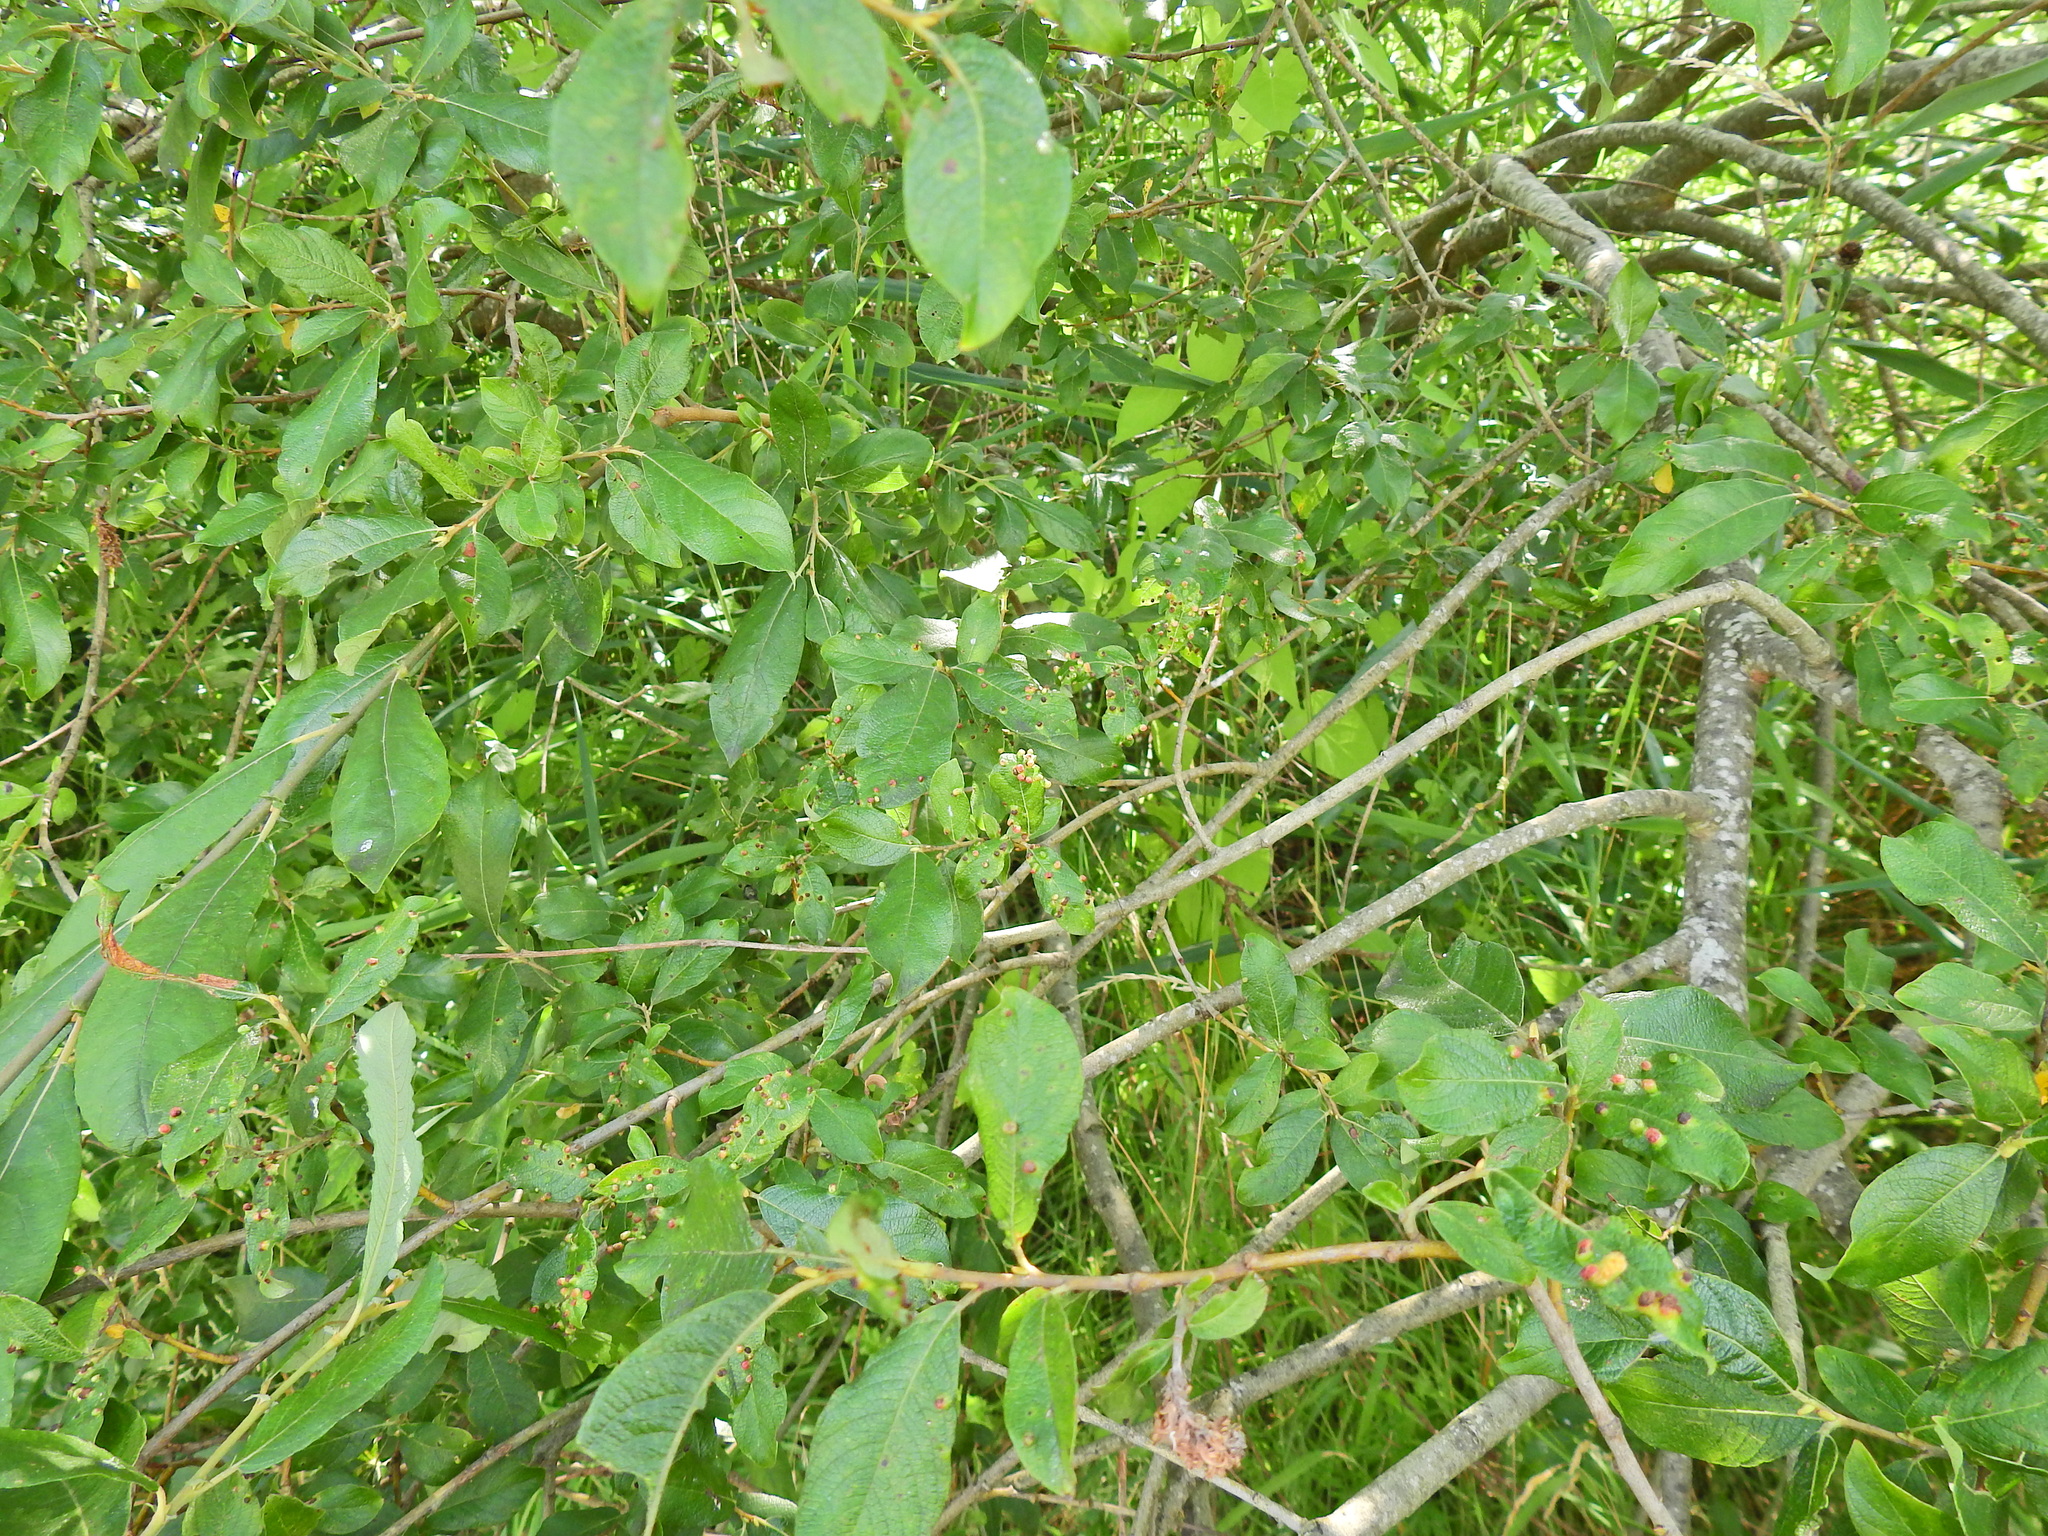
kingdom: Plantae
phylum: Tracheophyta
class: Magnoliopsida
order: Malpighiales
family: Salicaceae
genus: Salix
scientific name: Salix cinerea
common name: Common sallow
